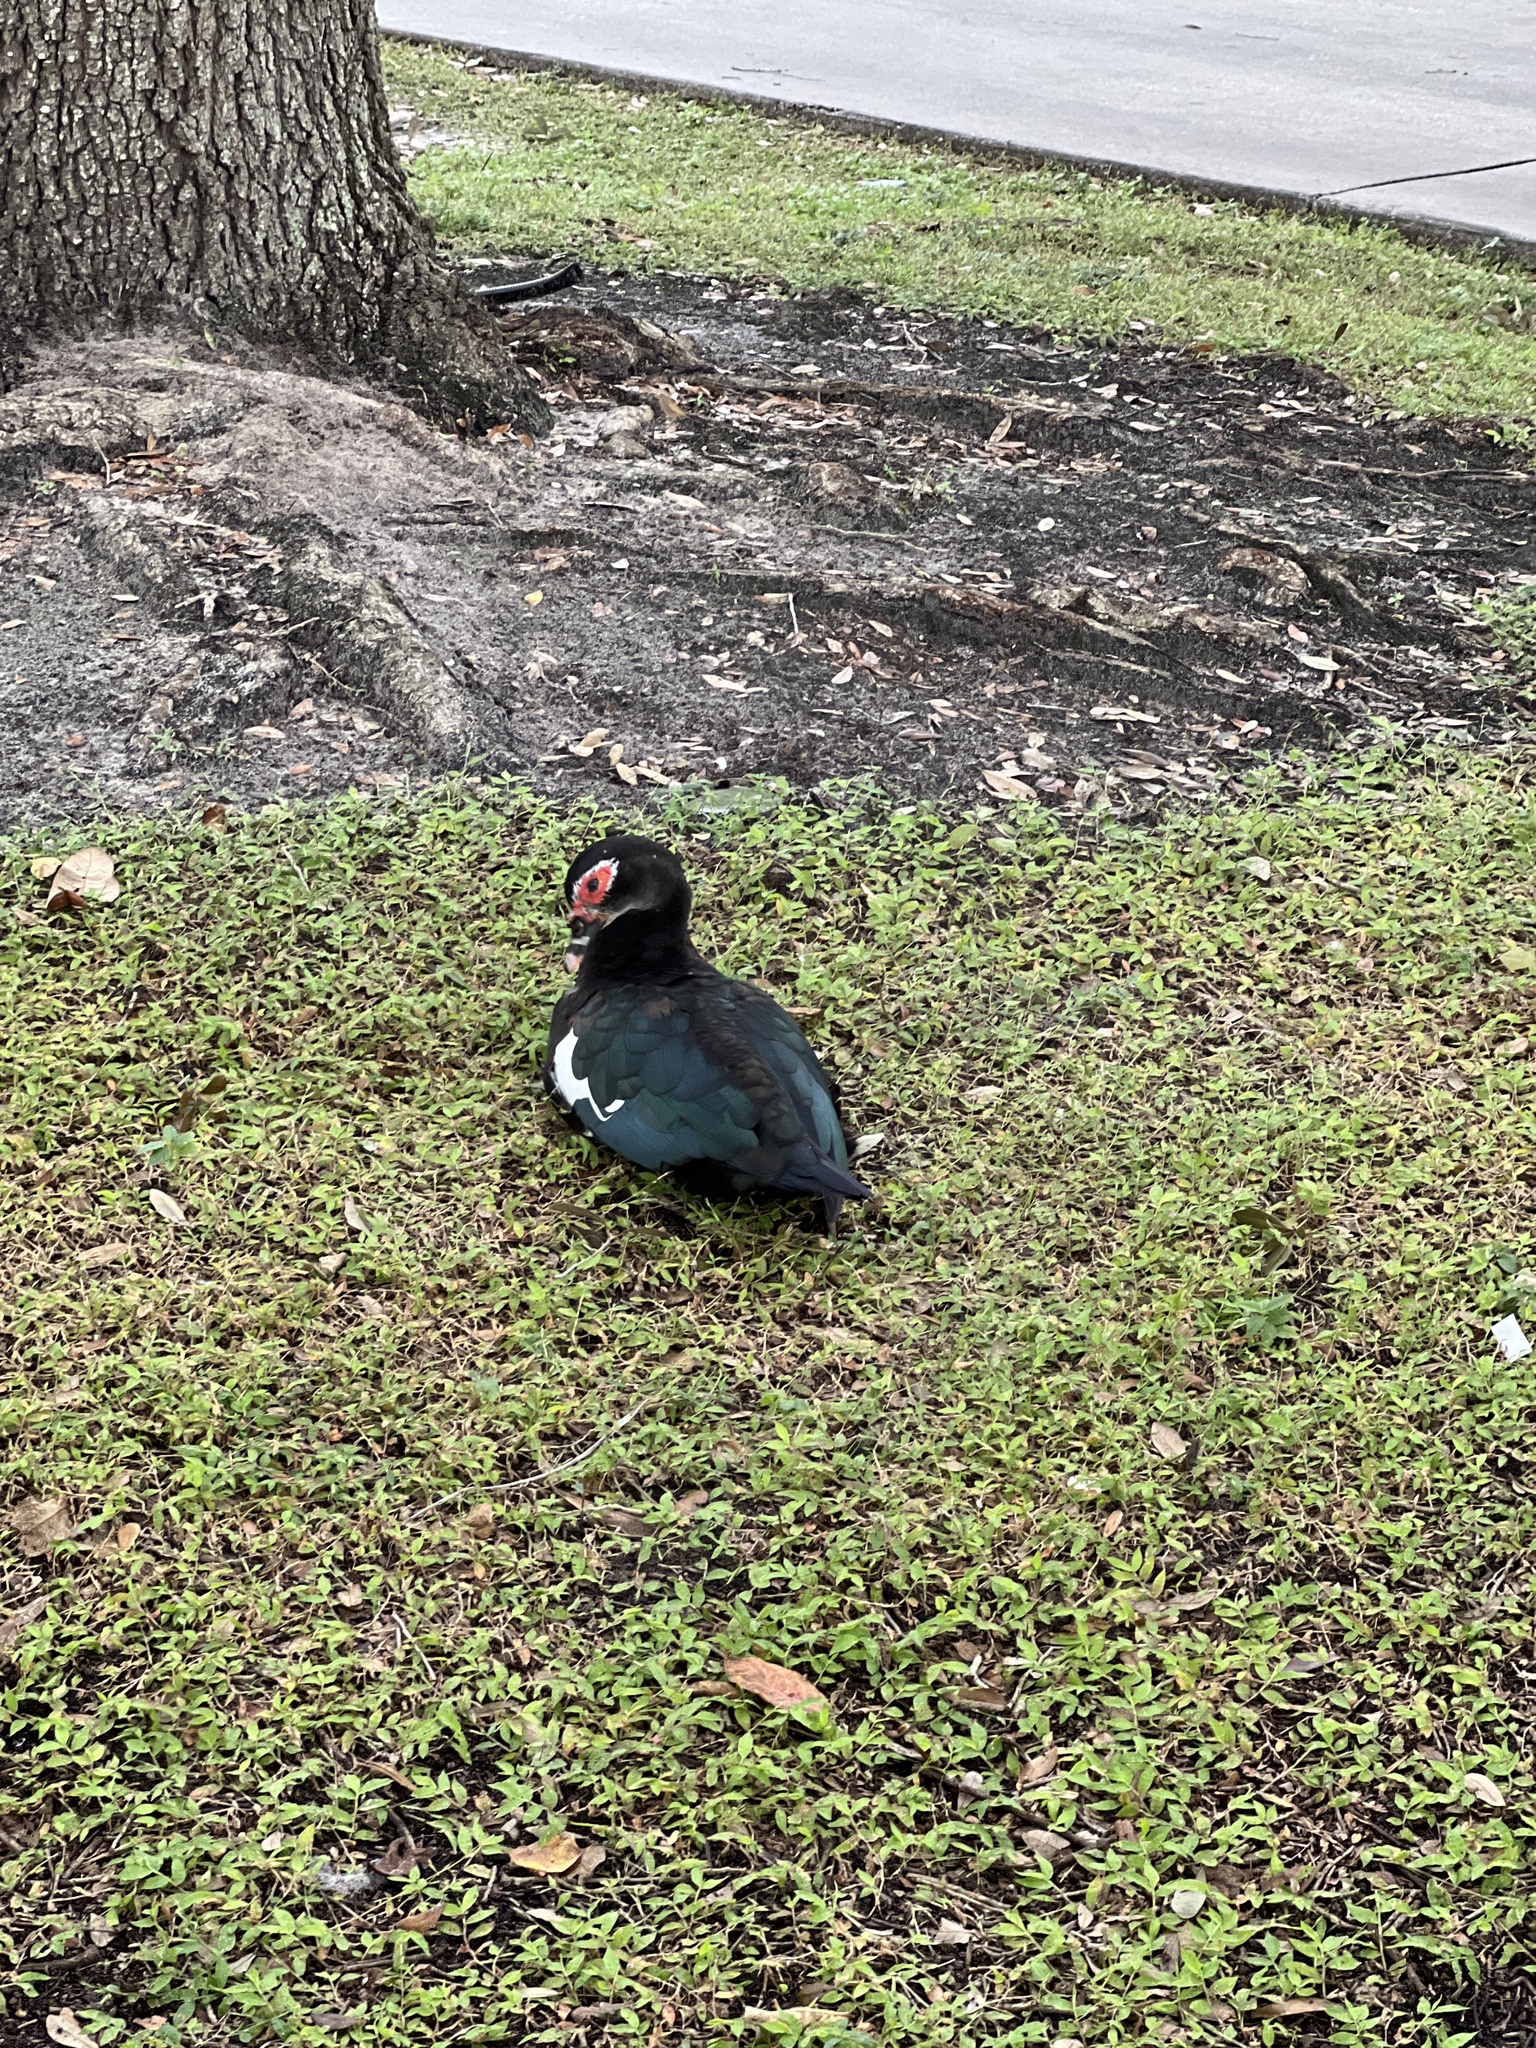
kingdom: Animalia
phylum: Chordata
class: Aves
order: Anseriformes
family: Anatidae
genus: Cairina
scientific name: Cairina moschata
